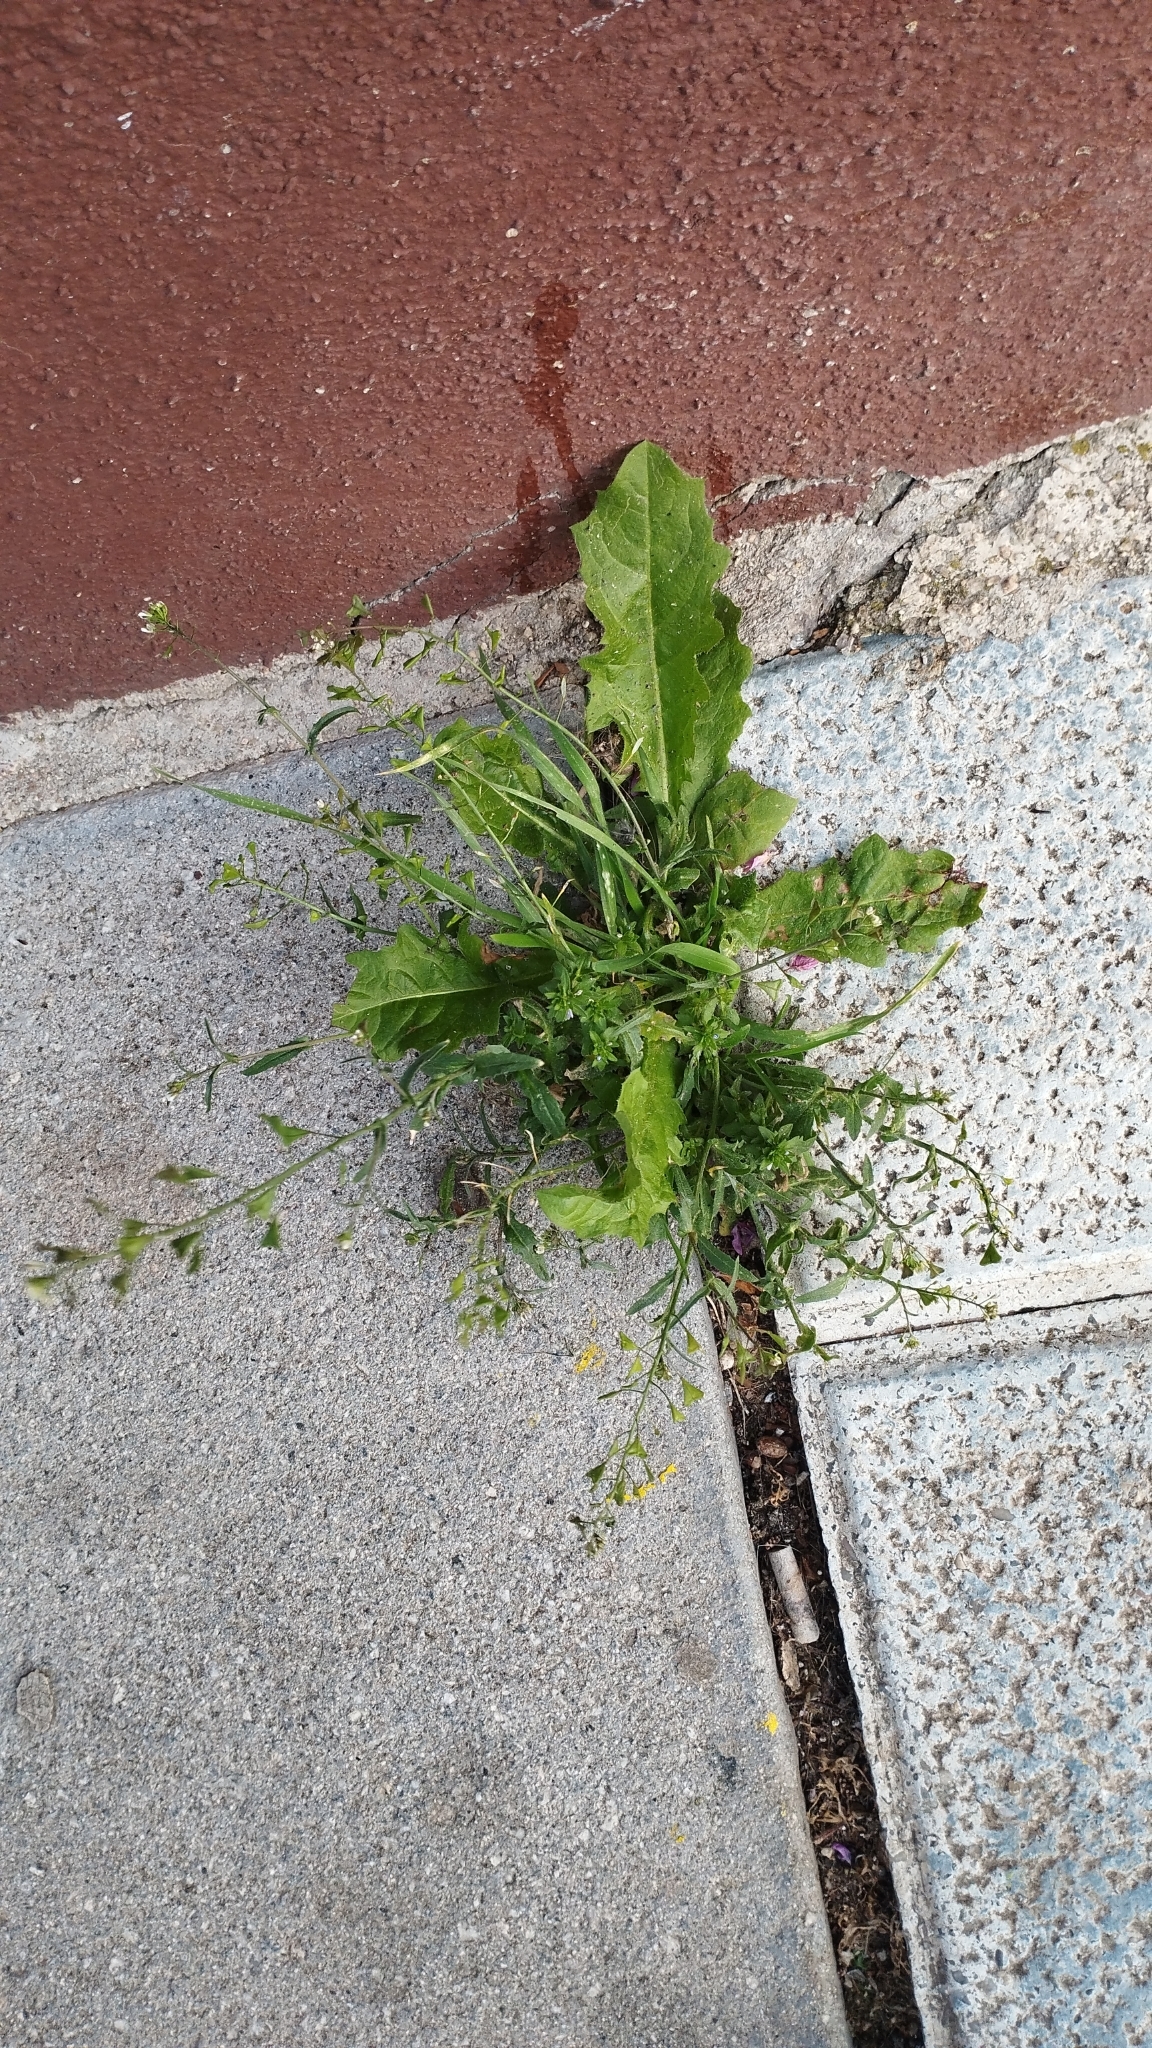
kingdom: Plantae
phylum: Tracheophyta
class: Magnoliopsida
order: Brassicales
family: Brassicaceae
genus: Capsella
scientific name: Capsella bursa-pastoris
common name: Shepherd's purse
